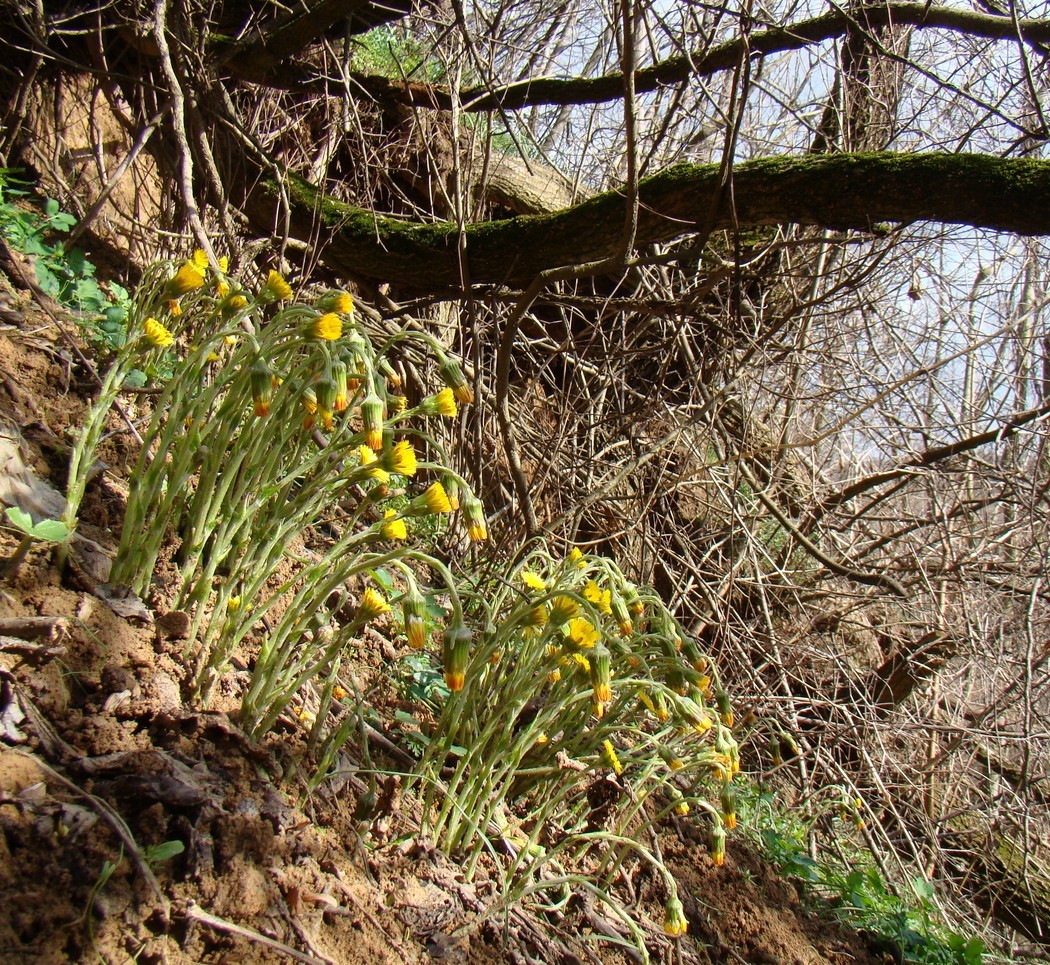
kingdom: Plantae
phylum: Tracheophyta
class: Magnoliopsida
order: Asterales
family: Asteraceae
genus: Tussilago
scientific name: Tussilago farfara
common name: Coltsfoot
